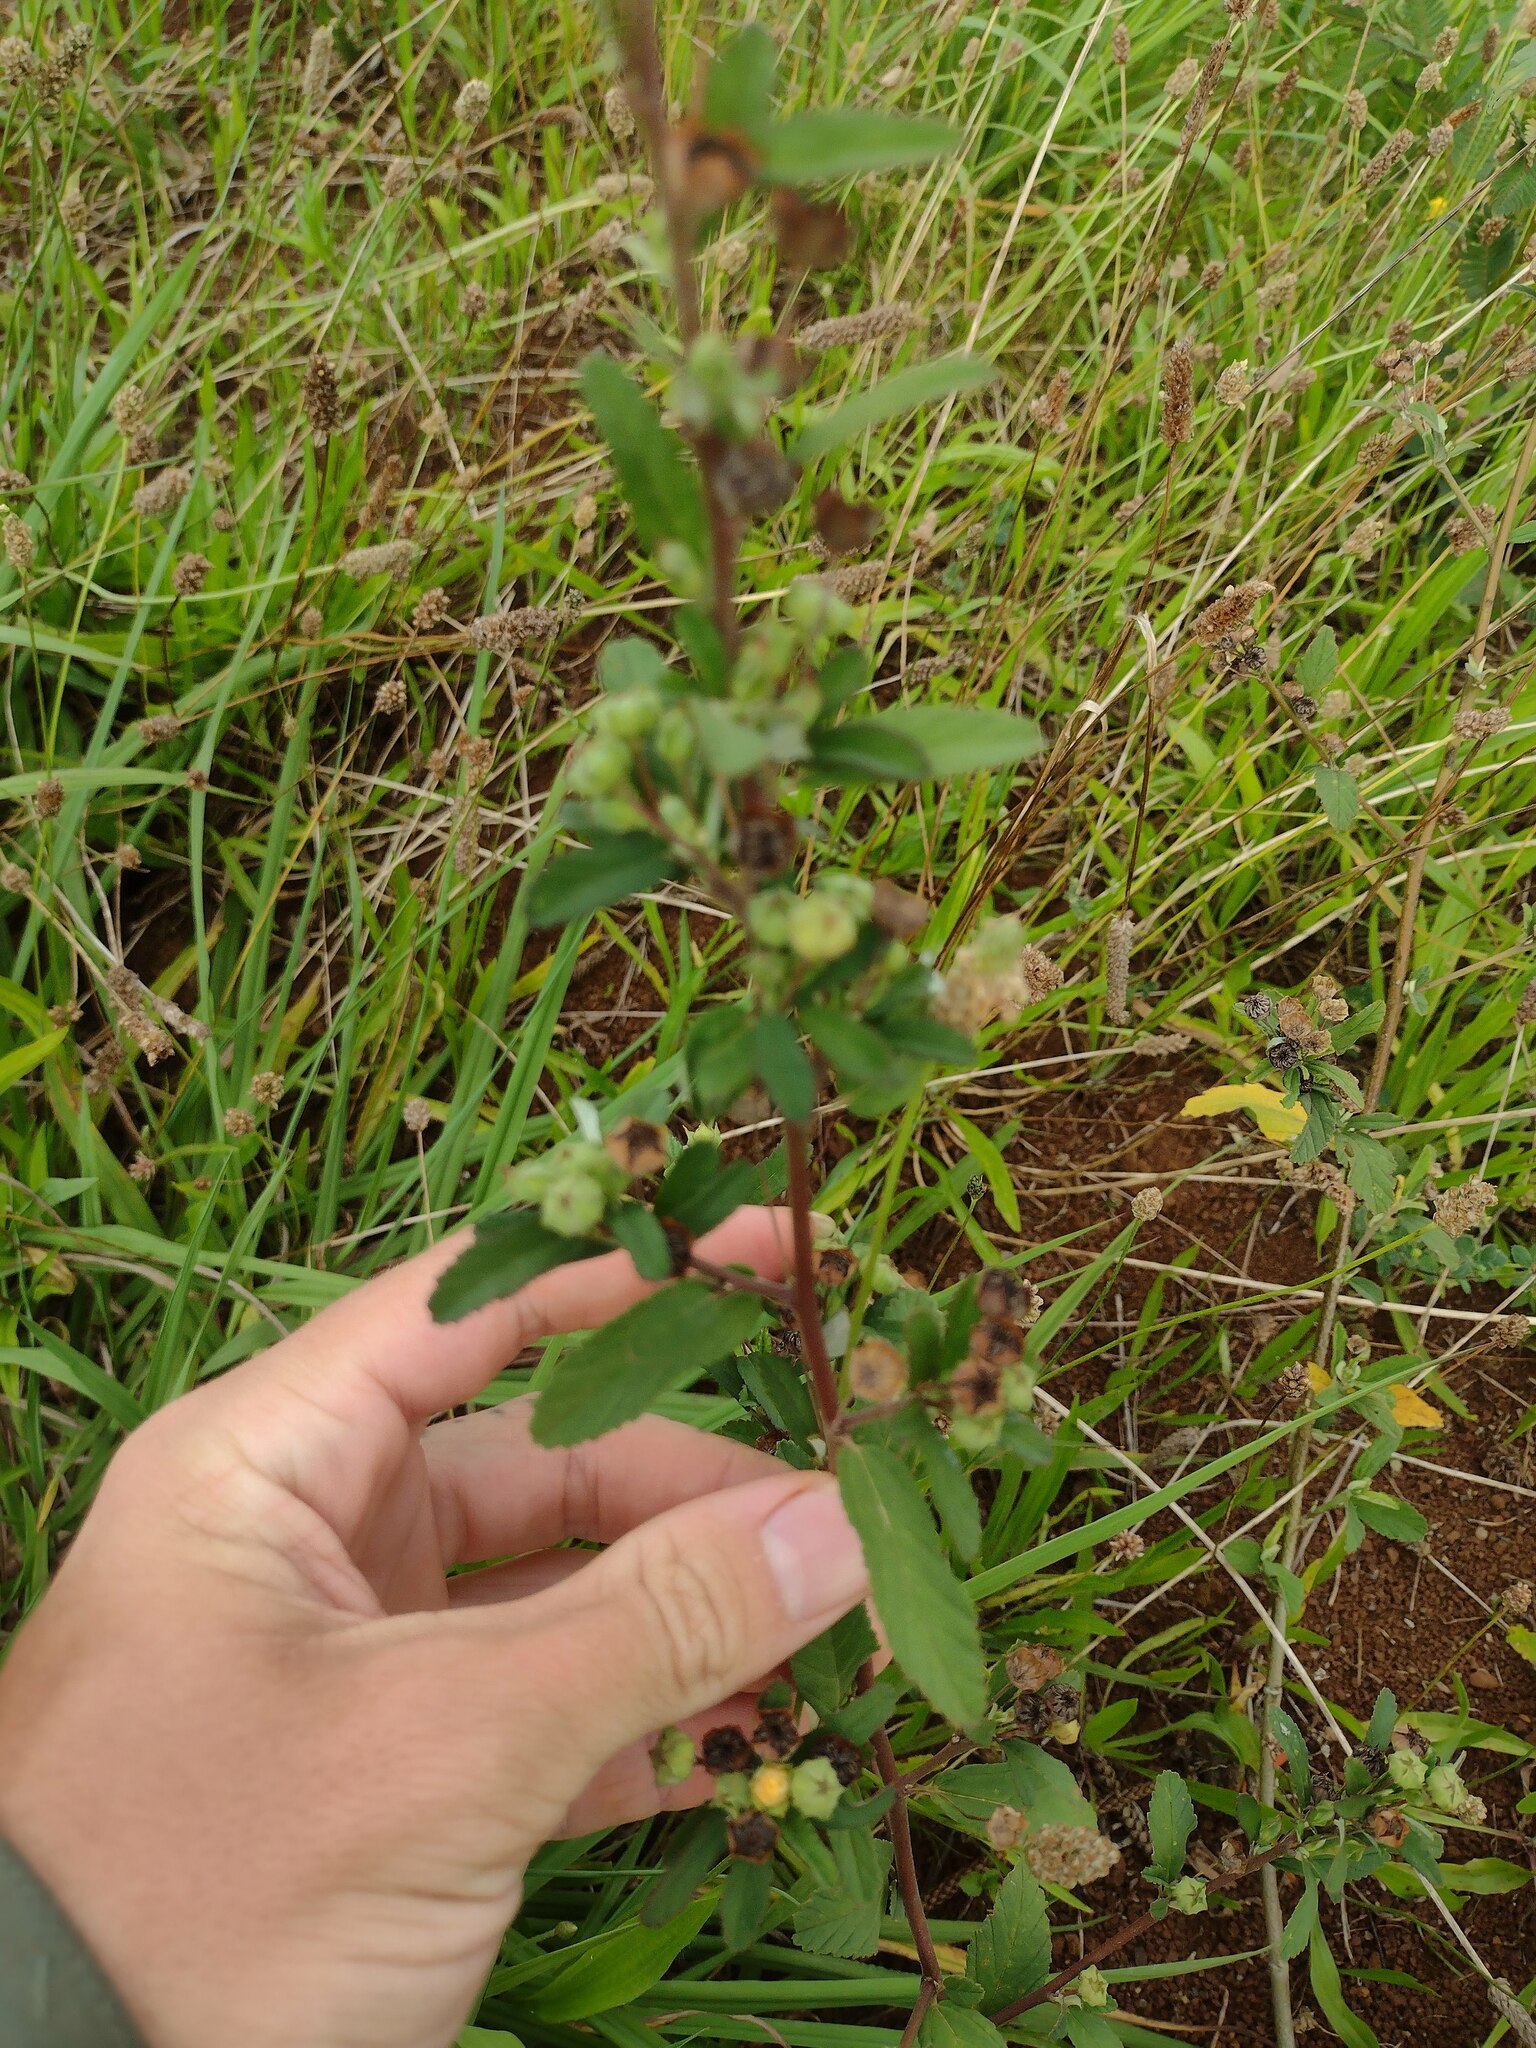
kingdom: Plantae
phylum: Tracheophyta
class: Magnoliopsida
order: Malvales
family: Malvaceae
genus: Sida
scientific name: Sida rhombifolia
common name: Queensland-hemp
